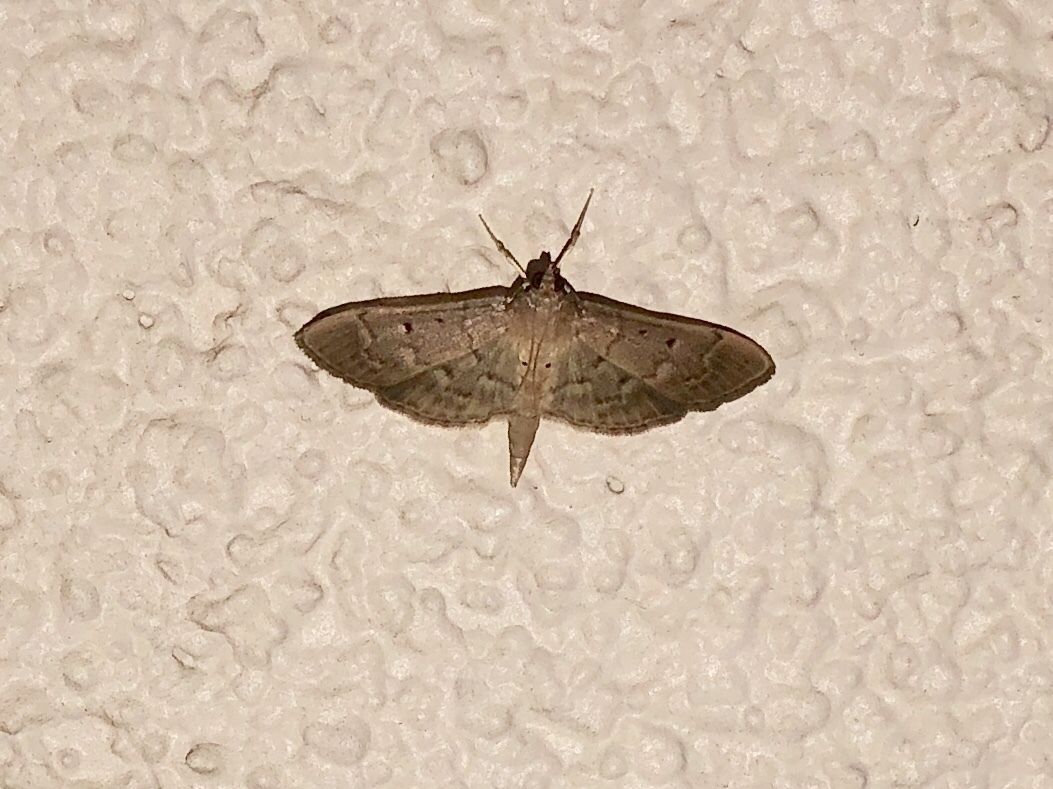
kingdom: Animalia
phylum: Arthropoda
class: Insecta
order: Lepidoptera
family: Crambidae
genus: Herpetogramma
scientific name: Herpetogramma bipunctalis
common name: Southern beet webworm
